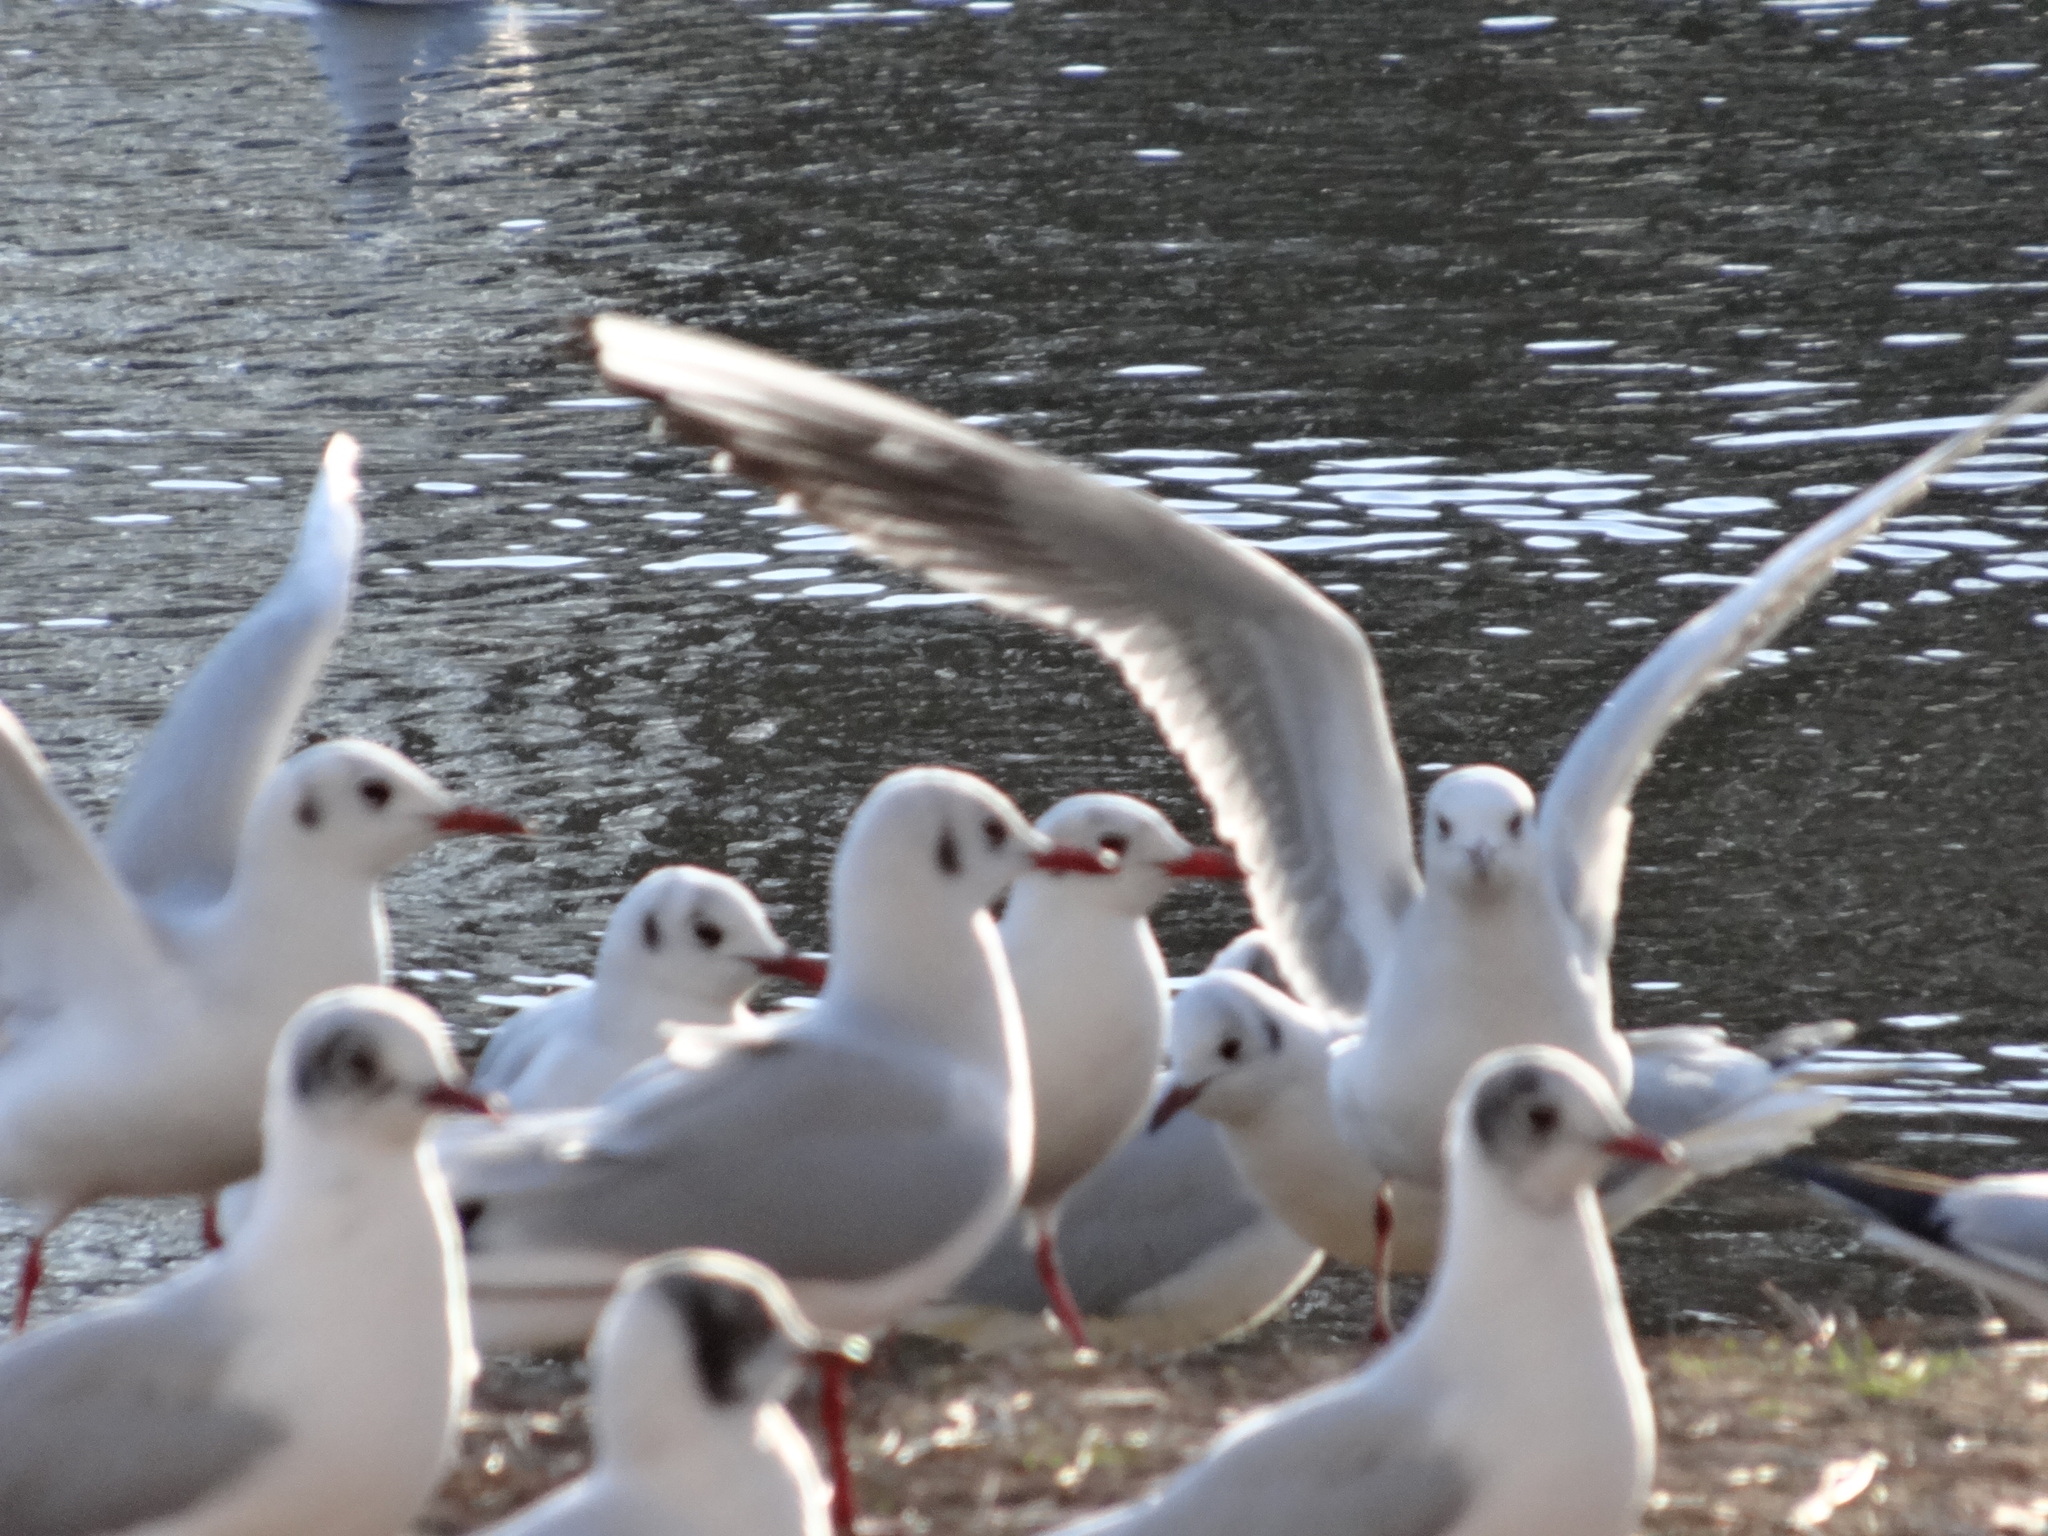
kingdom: Animalia
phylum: Chordata
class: Aves
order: Charadriiformes
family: Laridae
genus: Chroicocephalus
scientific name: Chroicocephalus ridibundus
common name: Black-headed gull
